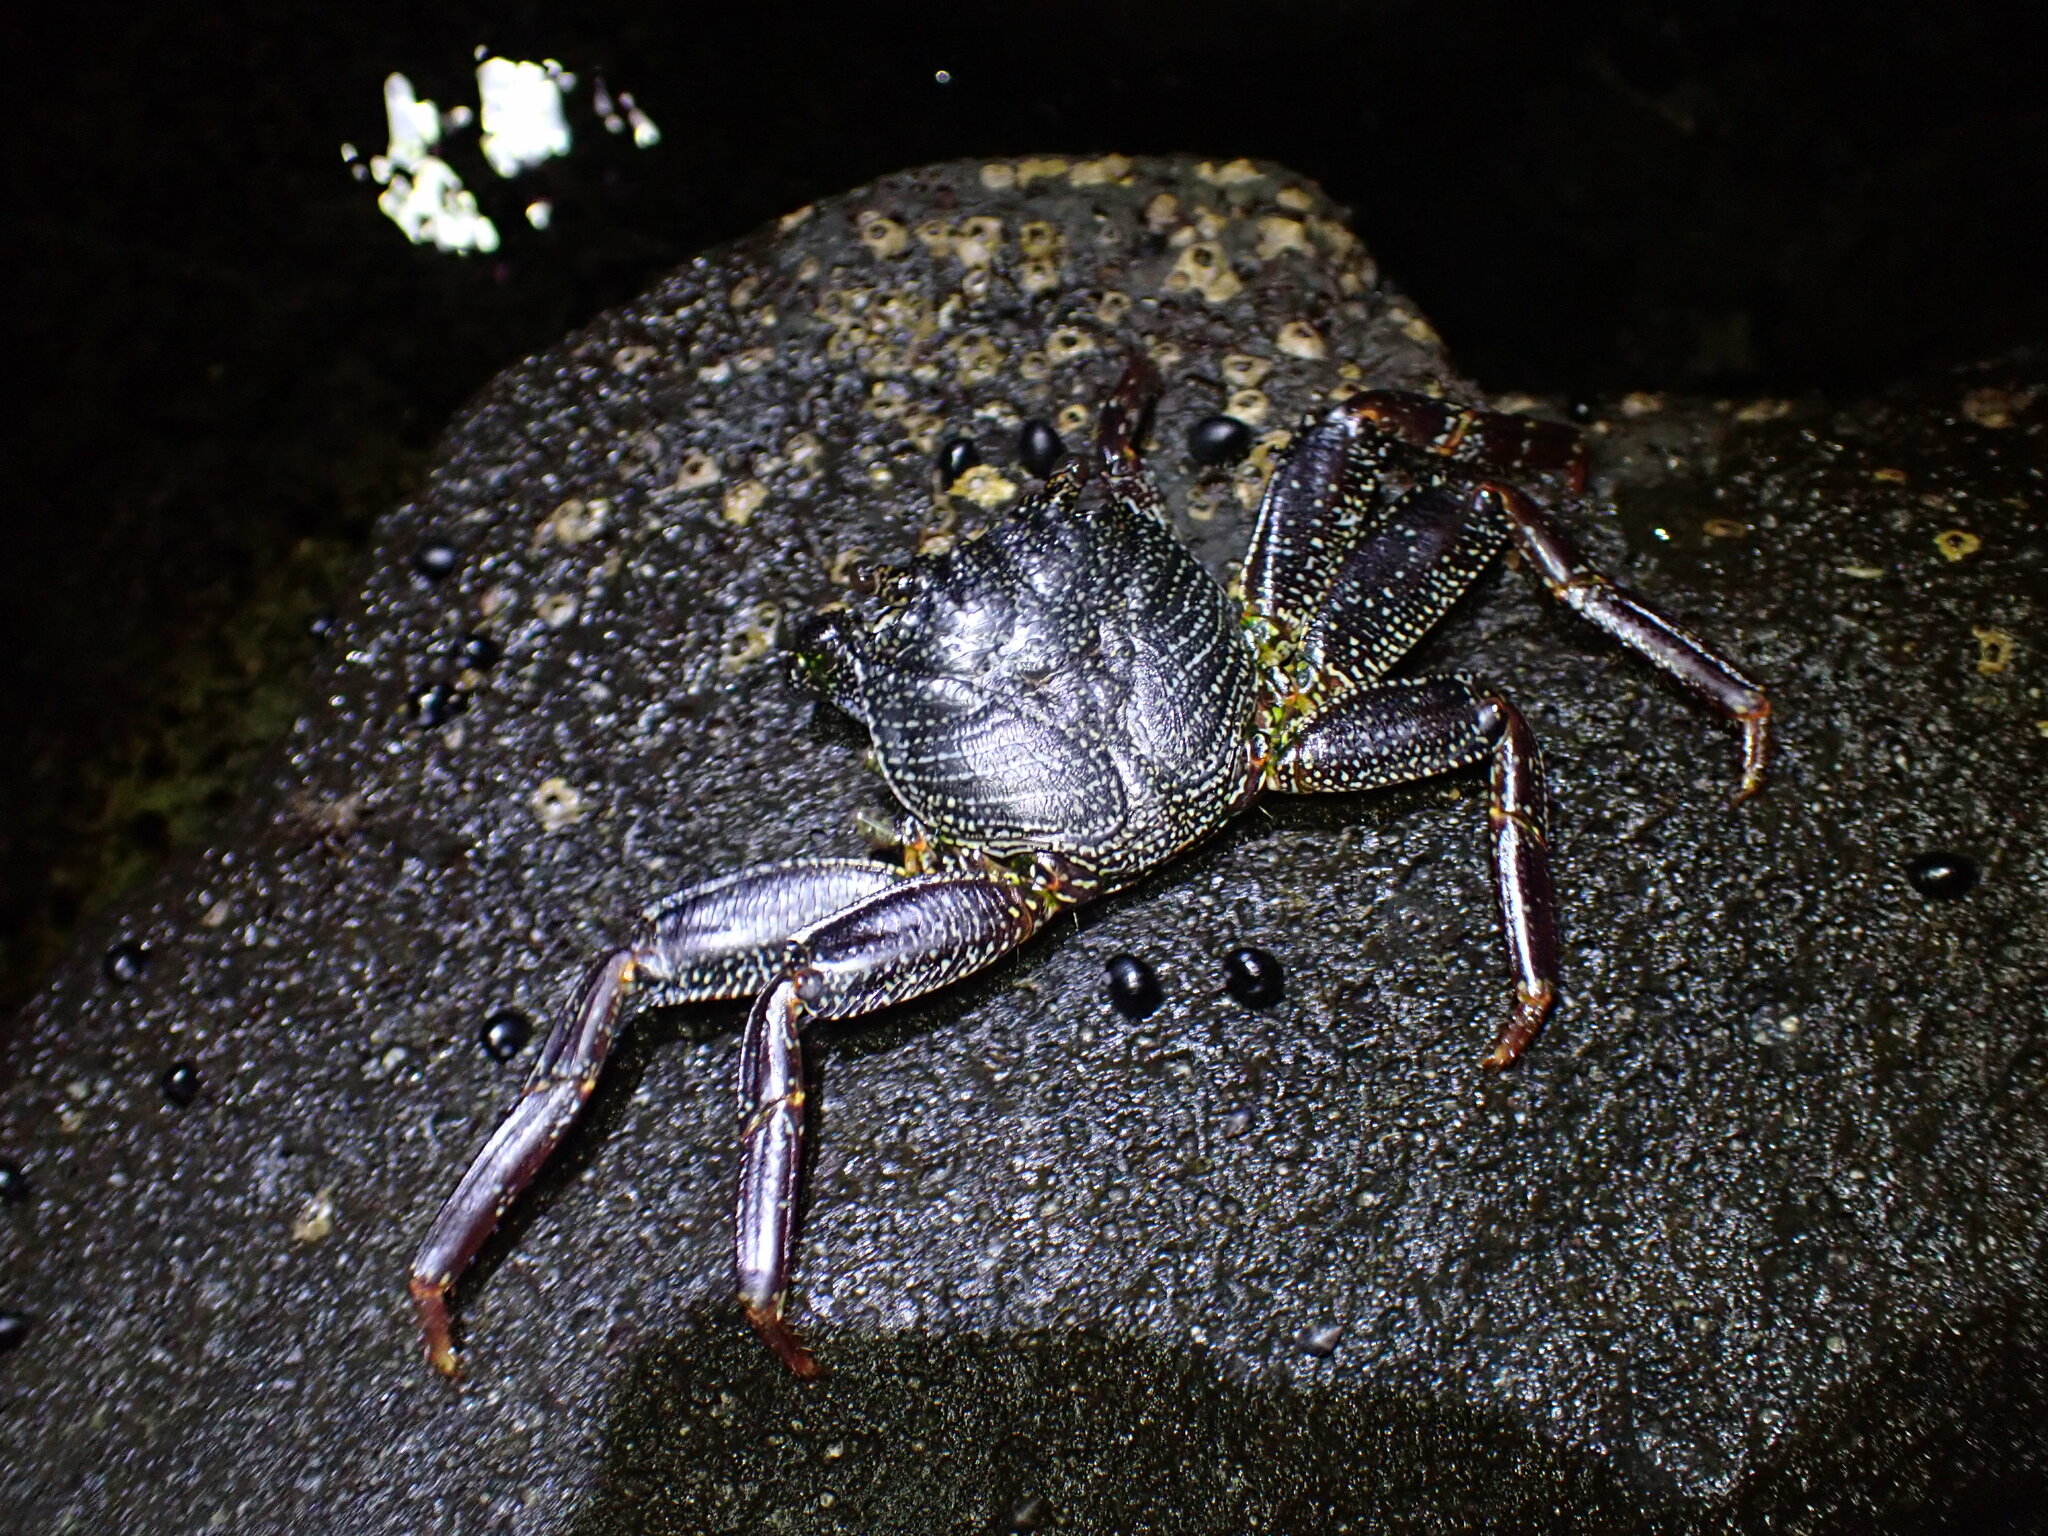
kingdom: Animalia
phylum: Arthropoda
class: Malacostraca
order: Decapoda
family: Grapsidae
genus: Grapsus
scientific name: Grapsus tenuicrustatus
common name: Natal lightfoot crab
